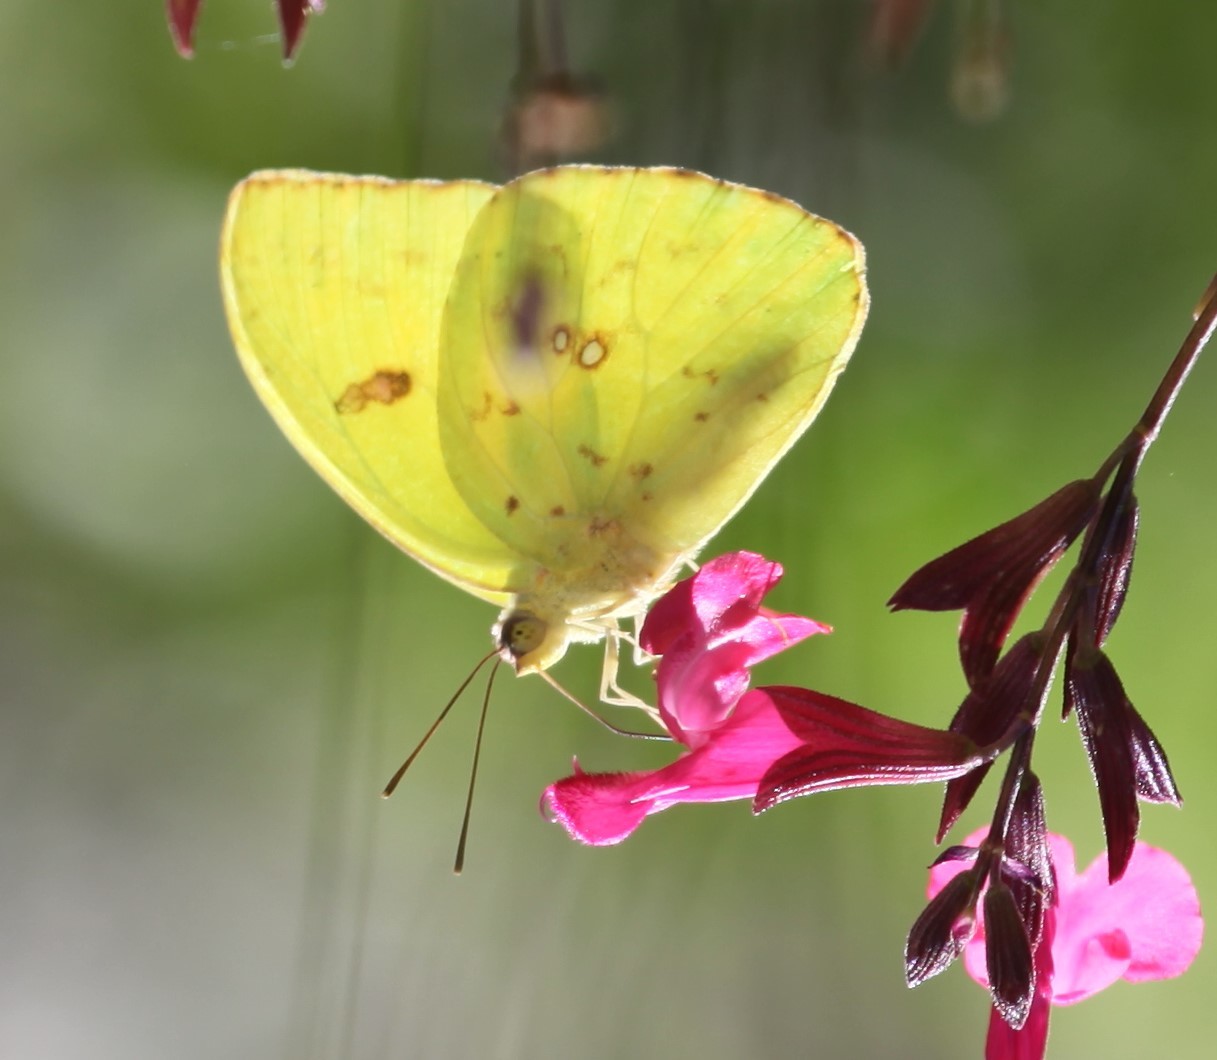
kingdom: Animalia
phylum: Arthropoda
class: Insecta
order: Lepidoptera
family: Pieridae
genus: Phoebis
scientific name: Phoebis sennae
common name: Cloudless sulphur
